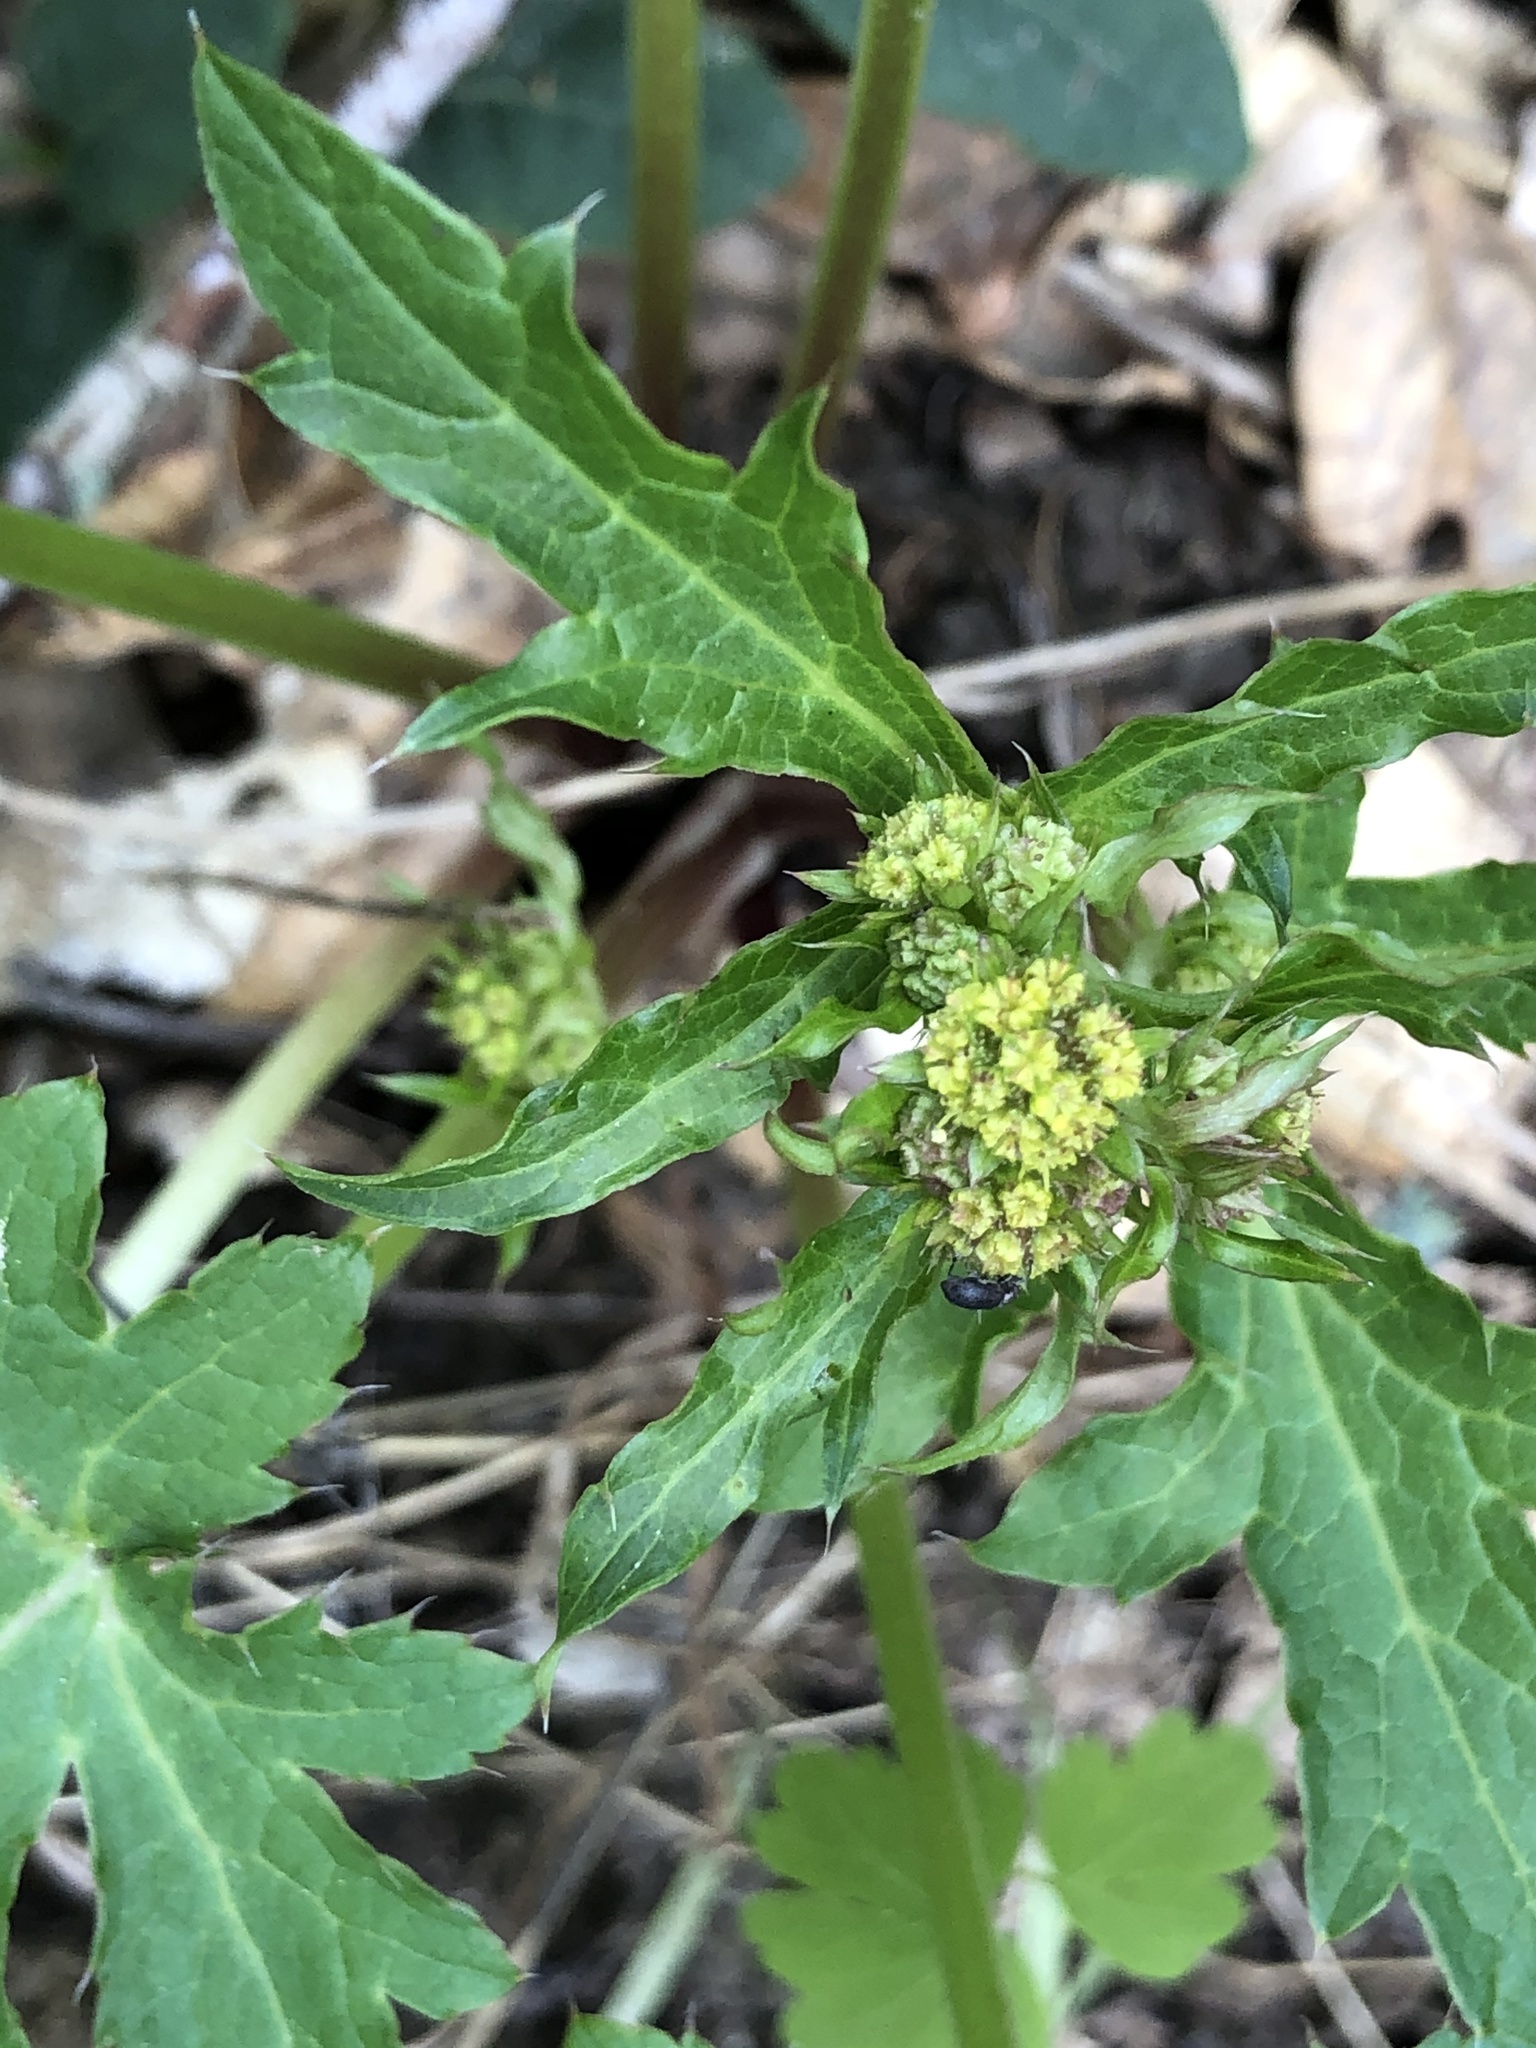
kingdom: Plantae
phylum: Tracheophyta
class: Magnoliopsida
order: Apiales
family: Apiaceae
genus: Sanicula
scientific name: Sanicula crassicaulis
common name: Western snakeroot
